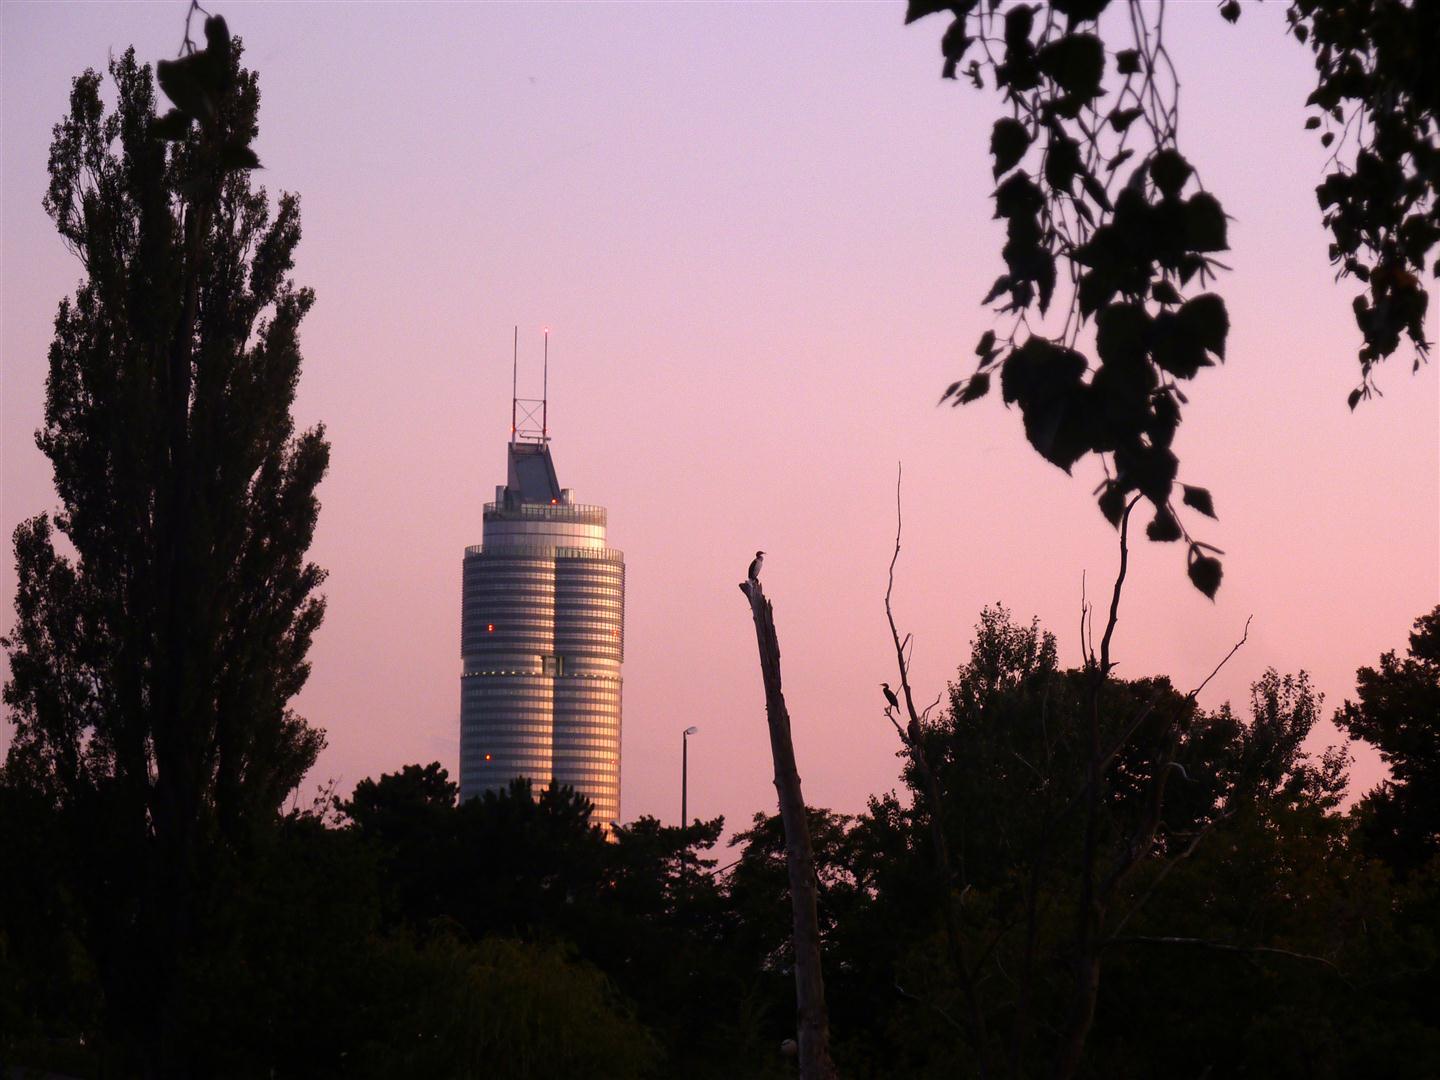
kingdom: Animalia
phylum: Chordata
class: Aves
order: Suliformes
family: Phalacrocoracidae
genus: Phalacrocorax
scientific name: Phalacrocorax carbo
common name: Great cormorant
